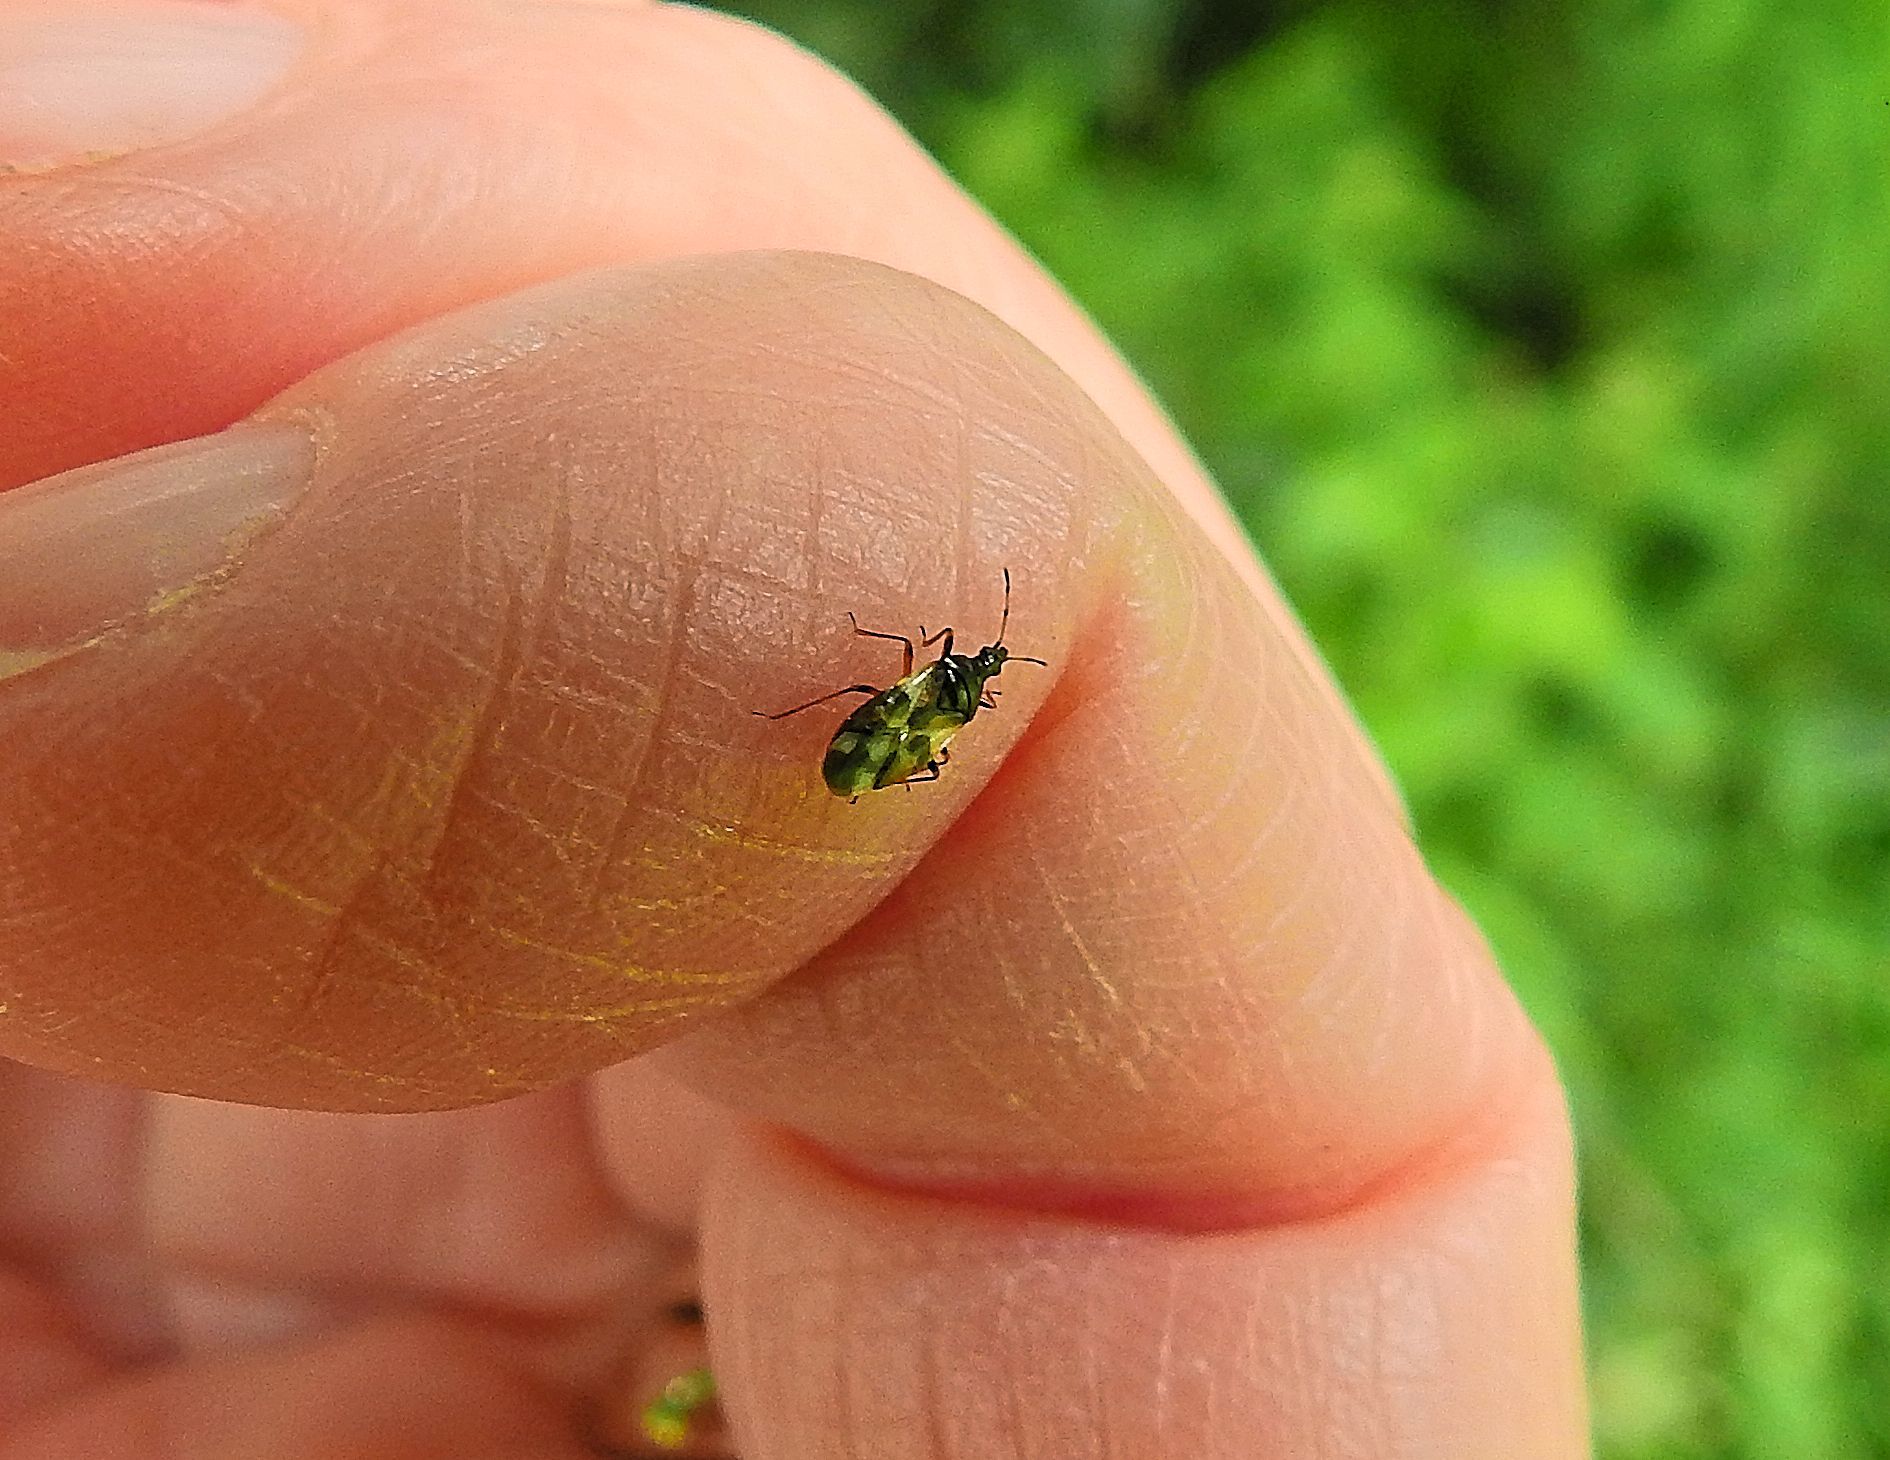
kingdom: Animalia
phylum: Arthropoda
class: Insecta
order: Hemiptera
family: Anthocoridae
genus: Anthocoris
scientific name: Anthocoris nemorum
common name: Minute pirate bug
